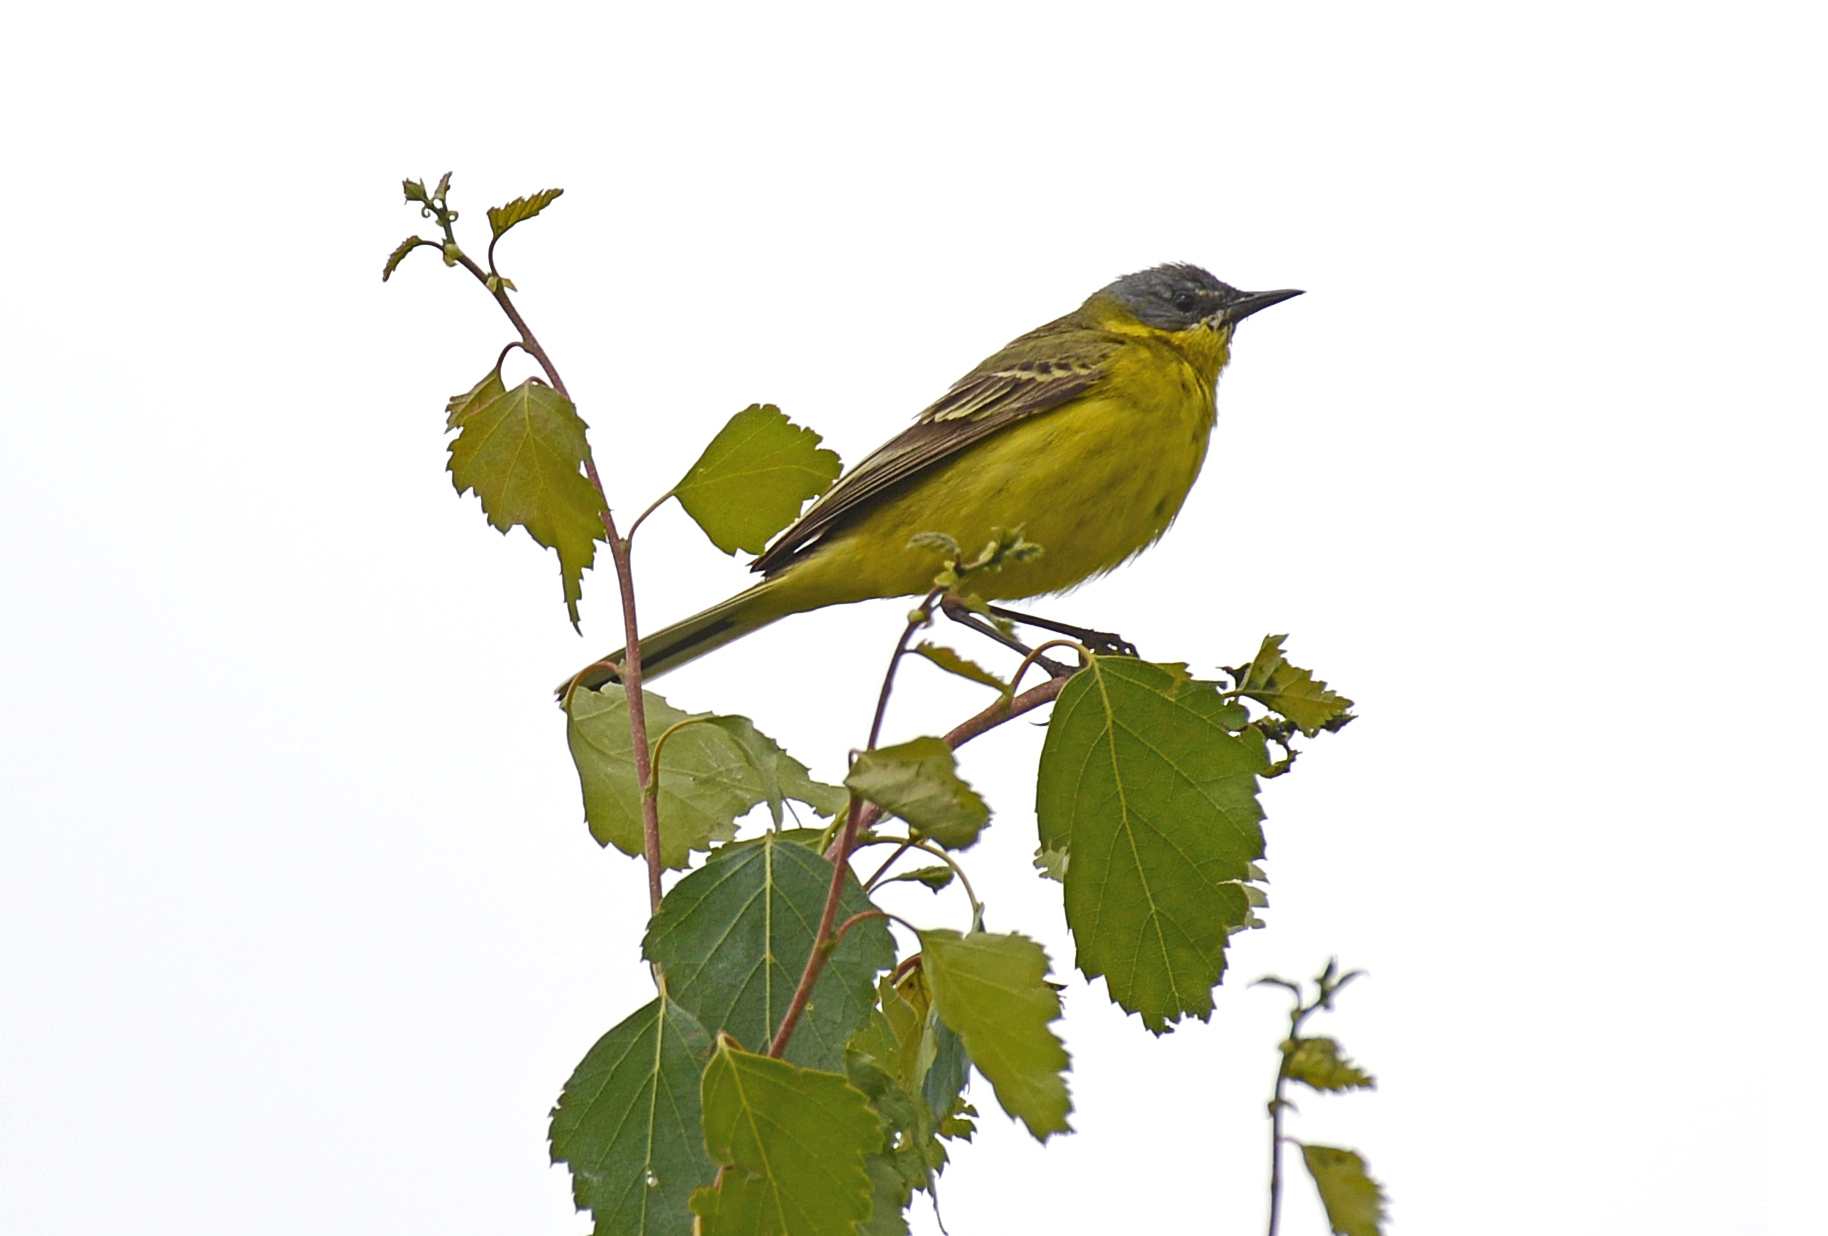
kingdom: Animalia
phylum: Chordata
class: Aves
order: Passeriformes
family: Motacillidae
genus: Motacilla
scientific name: Motacilla flava
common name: Western yellow wagtail
